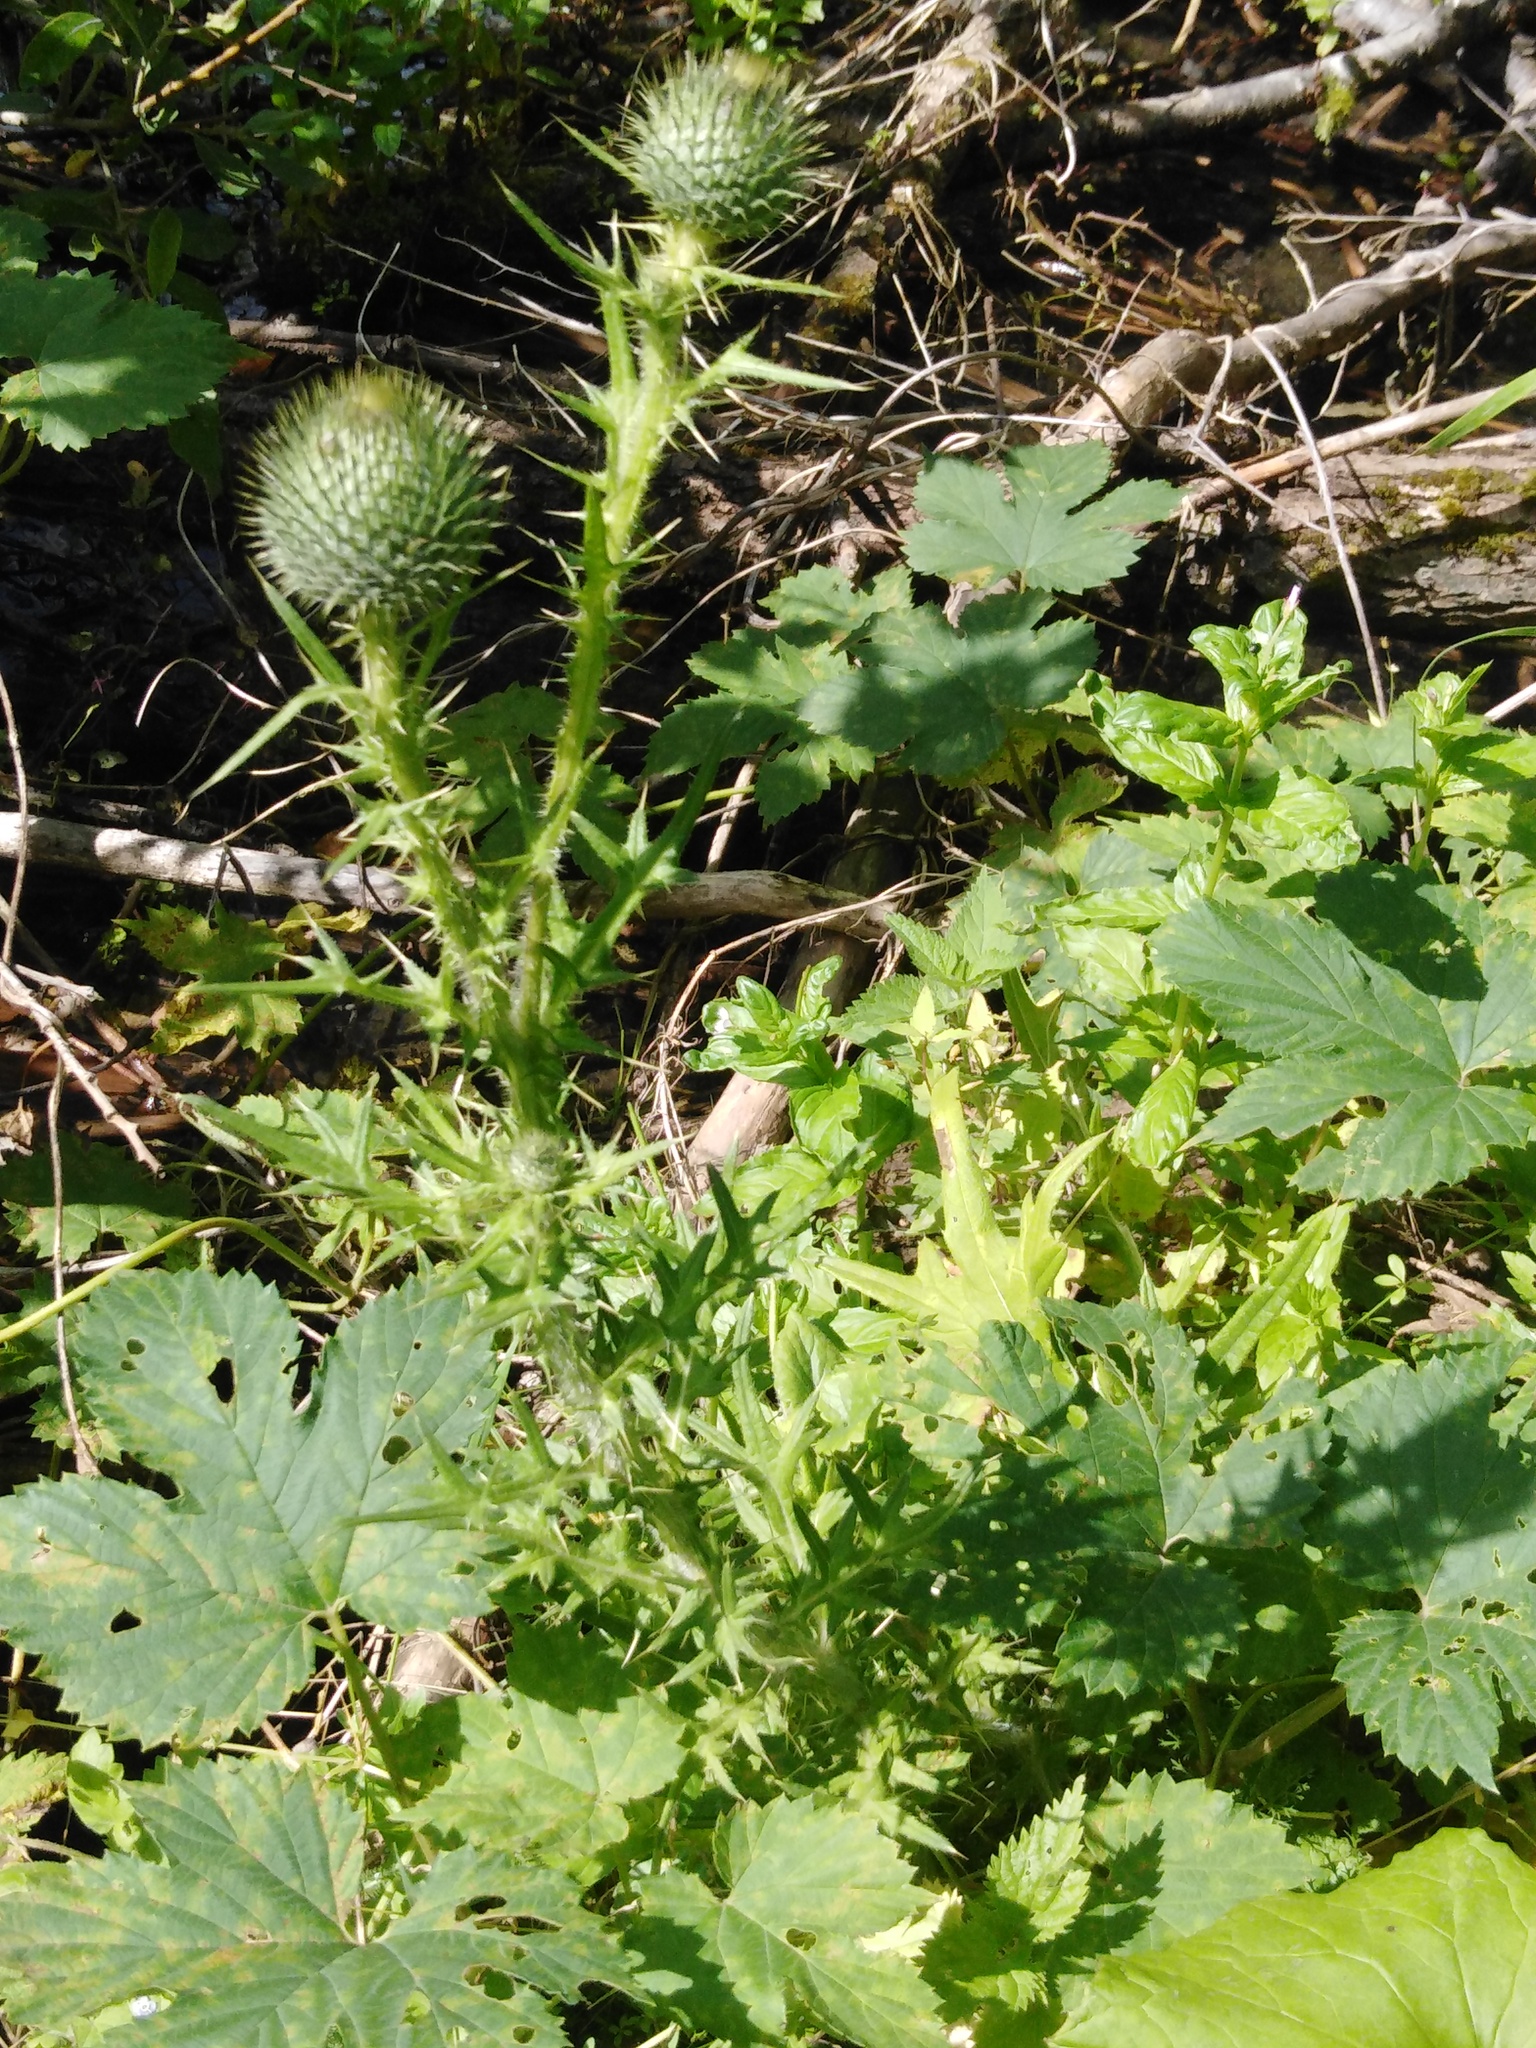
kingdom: Plantae
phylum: Tracheophyta
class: Magnoliopsida
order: Asterales
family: Asteraceae
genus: Cirsium
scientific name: Cirsium vulgare
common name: Bull thistle
